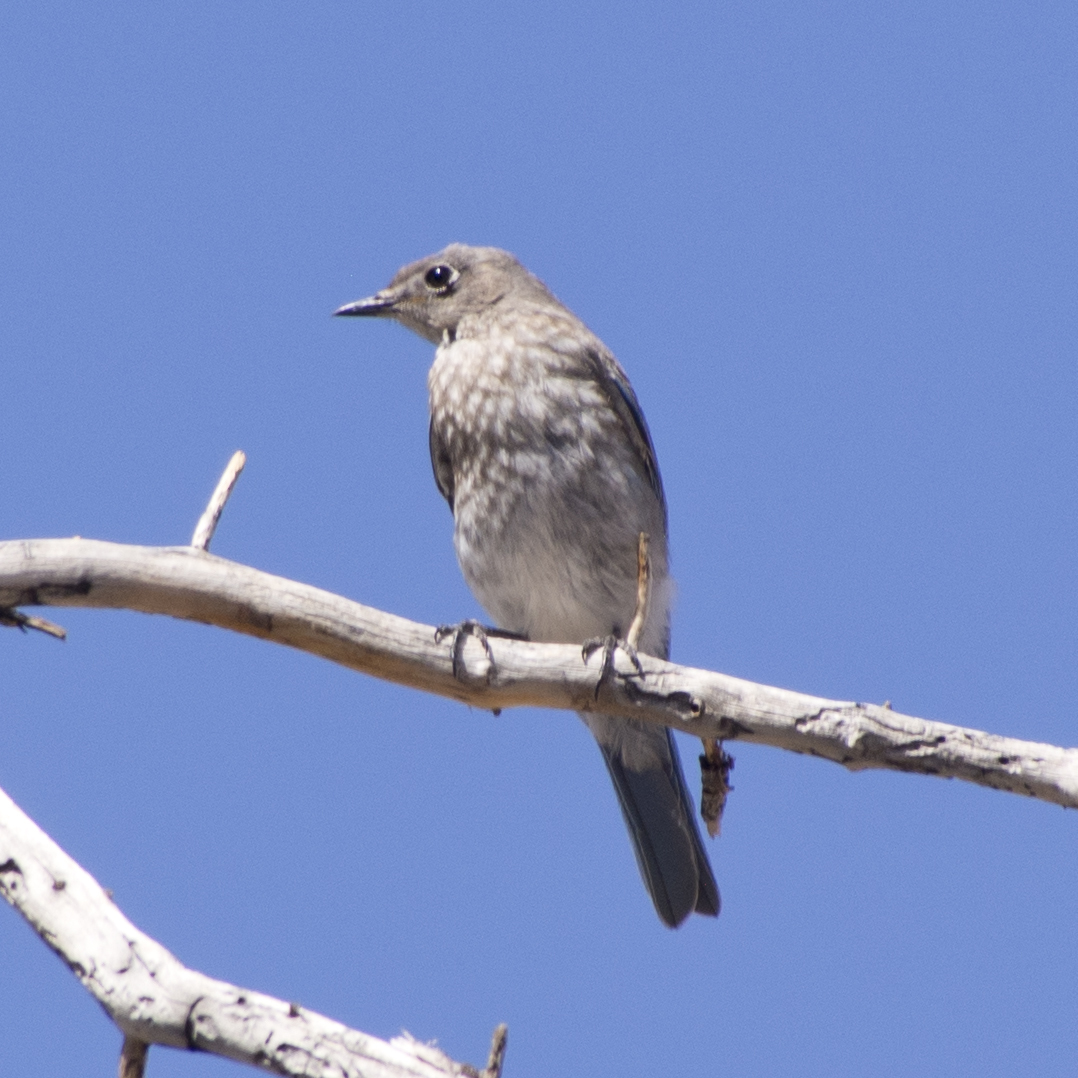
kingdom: Animalia
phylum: Chordata
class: Aves
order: Passeriformes
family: Turdidae
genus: Sialia
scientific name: Sialia currucoides
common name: Mountain bluebird
